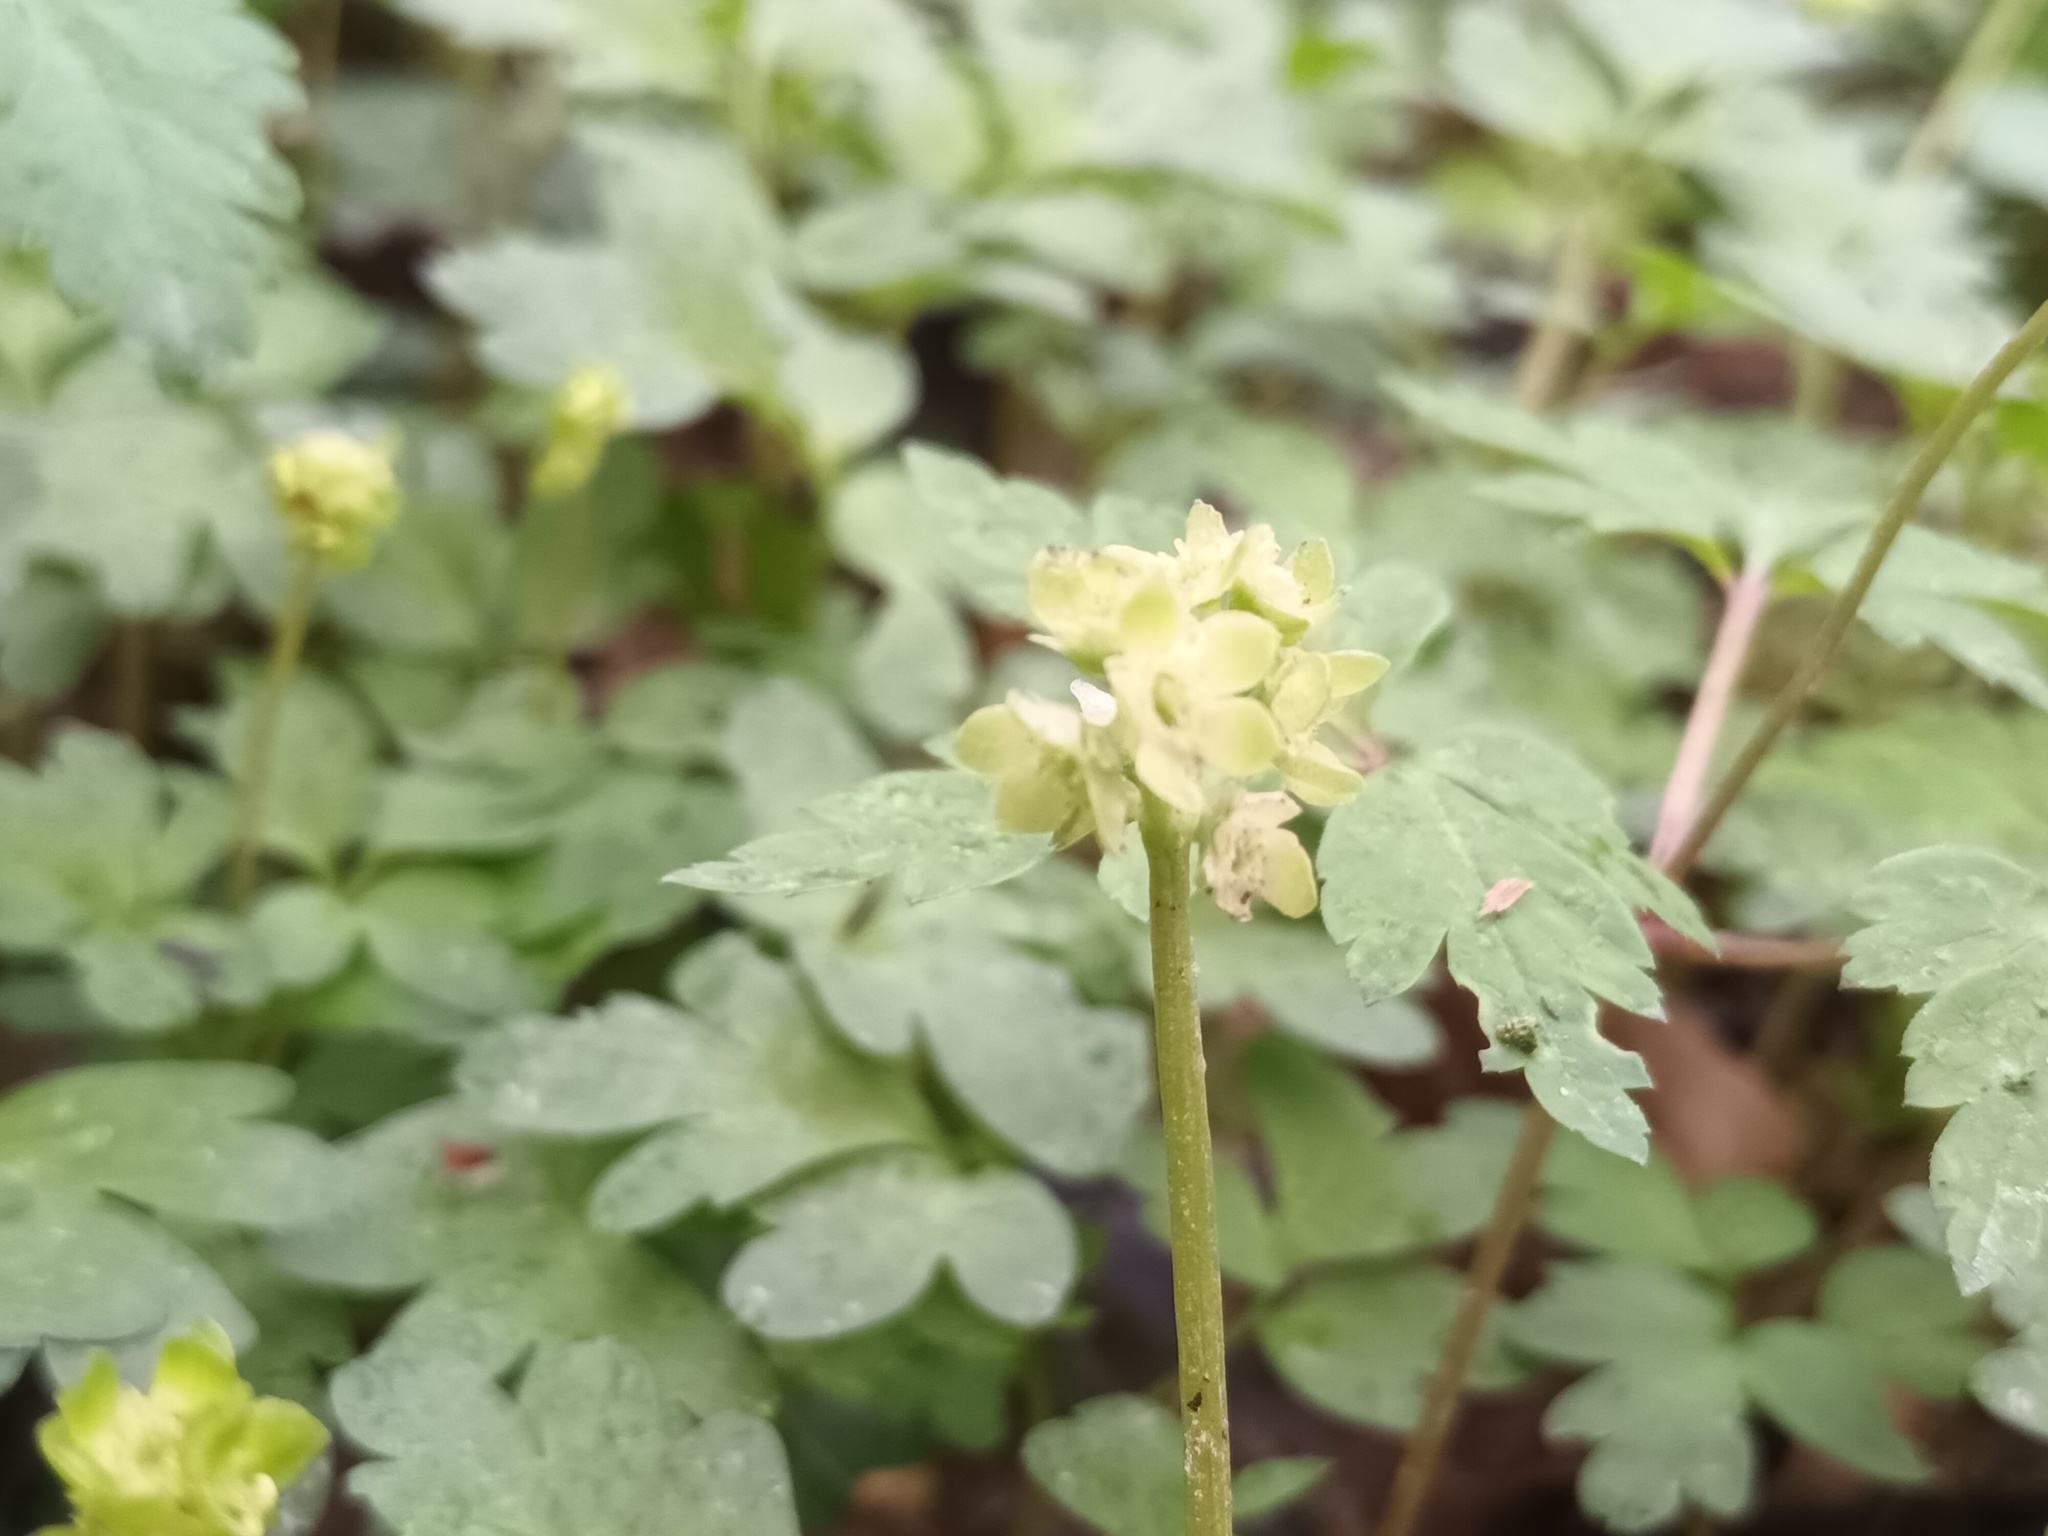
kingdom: Plantae
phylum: Tracheophyta
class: Magnoliopsida
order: Dipsacales
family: Viburnaceae
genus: Adoxa
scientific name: Adoxa moschatellina
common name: Moschatel
